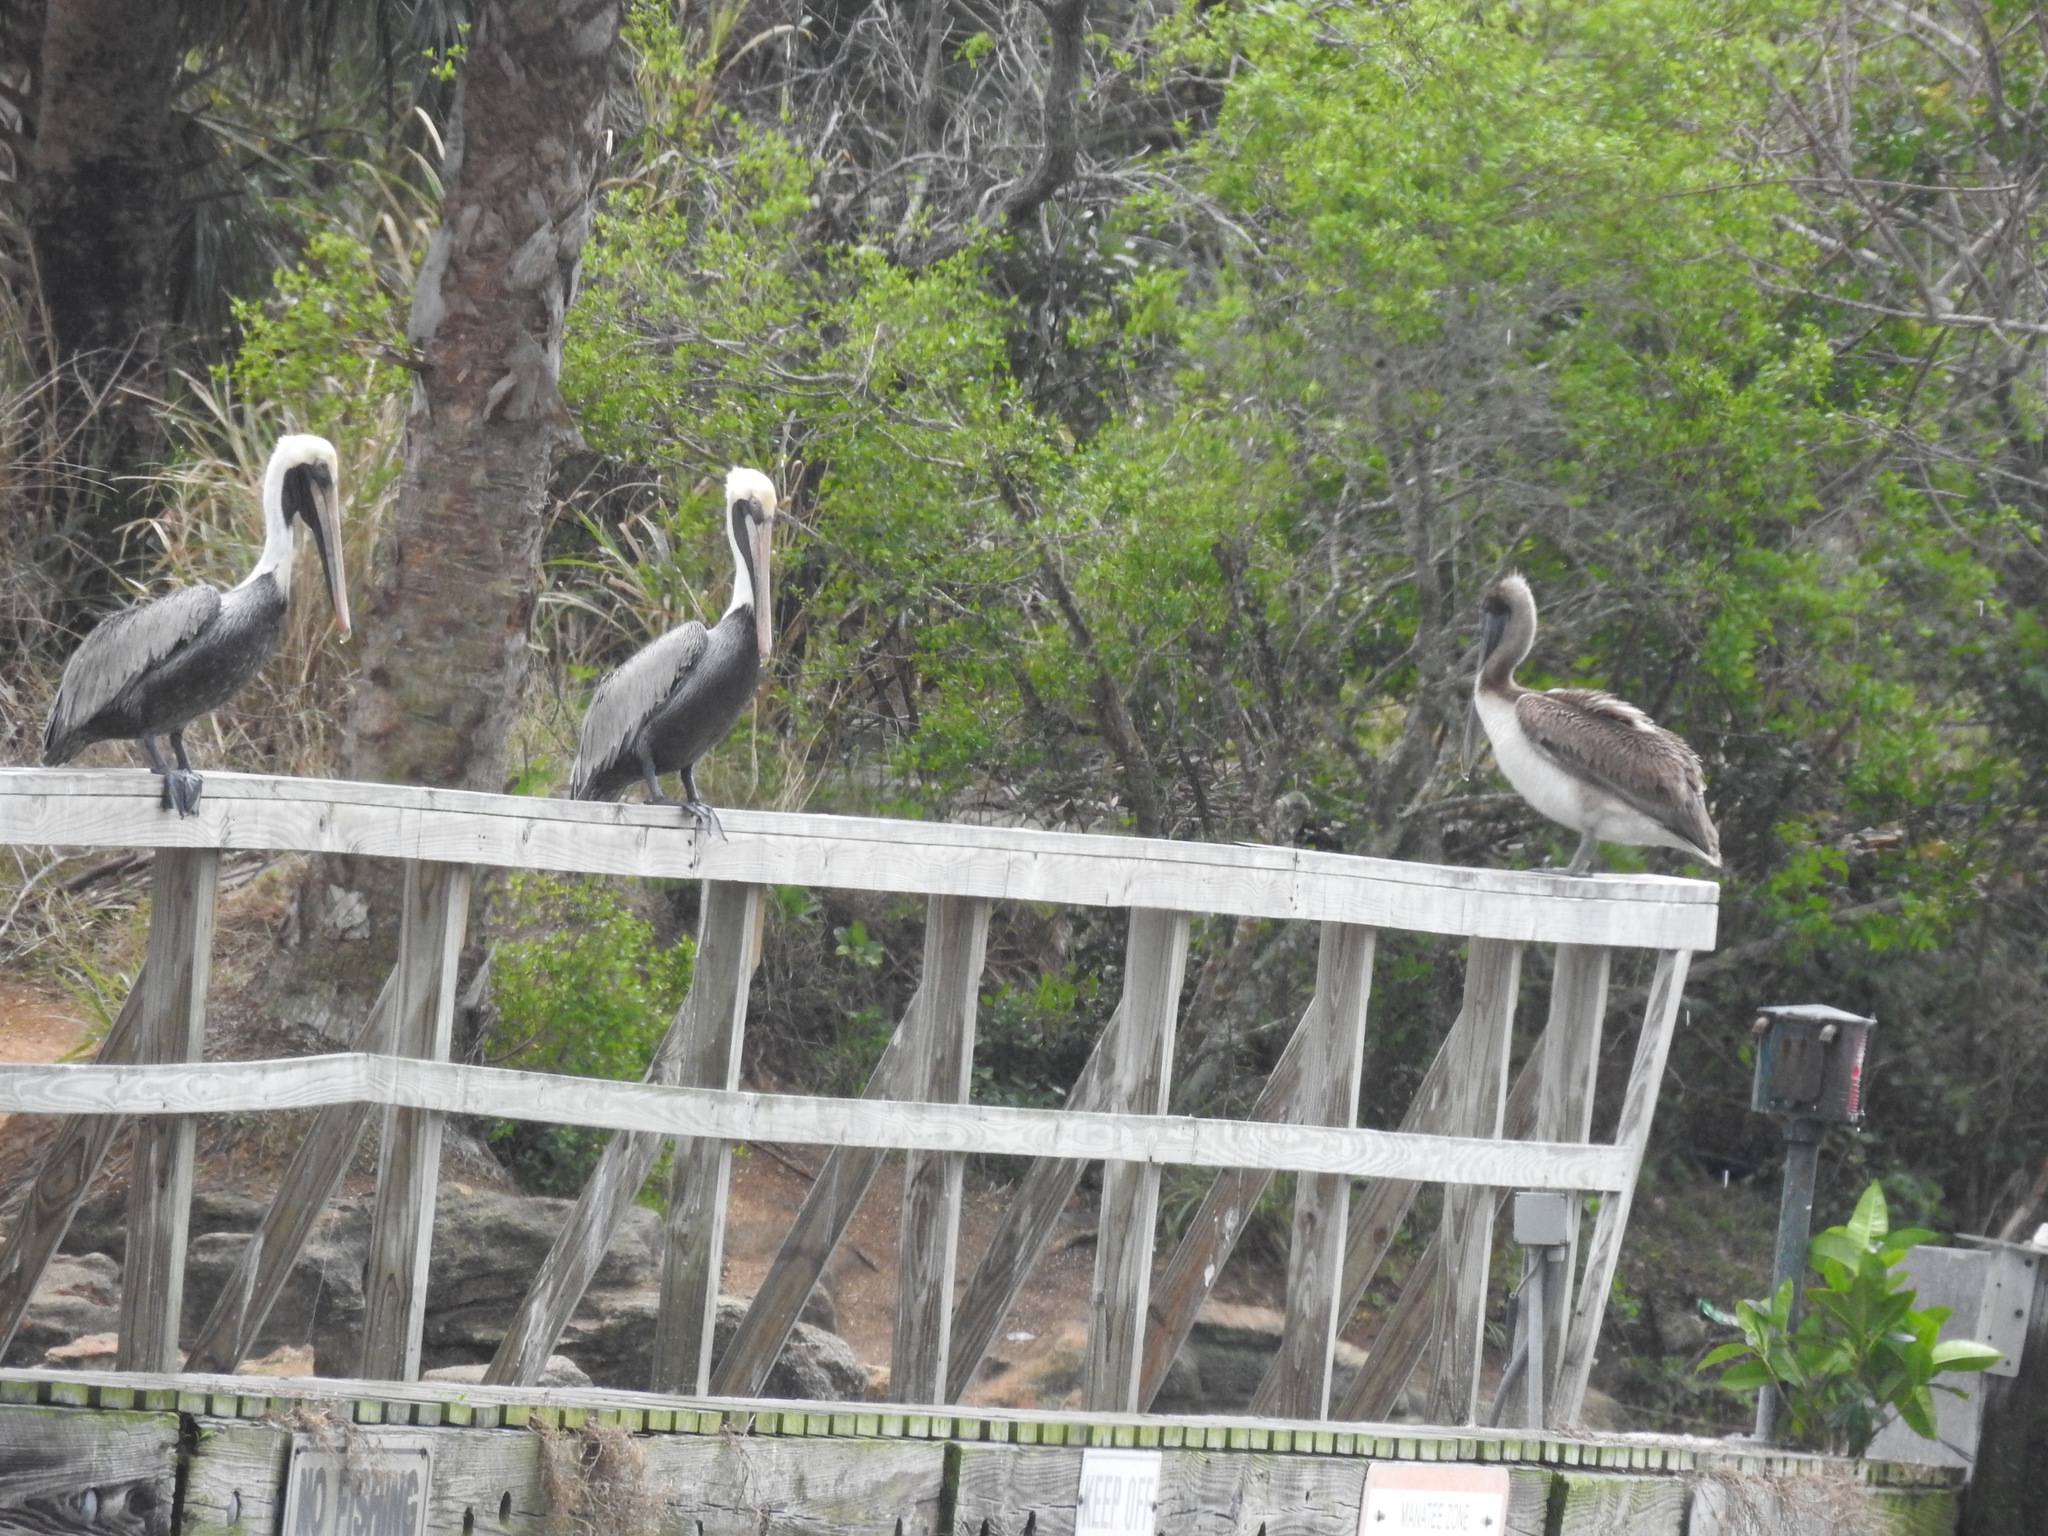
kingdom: Animalia
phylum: Chordata
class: Aves
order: Pelecaniformes
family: Pelecanidae
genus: Pelecanus
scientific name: Pelecanus occidentalis
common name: Brown pelican
